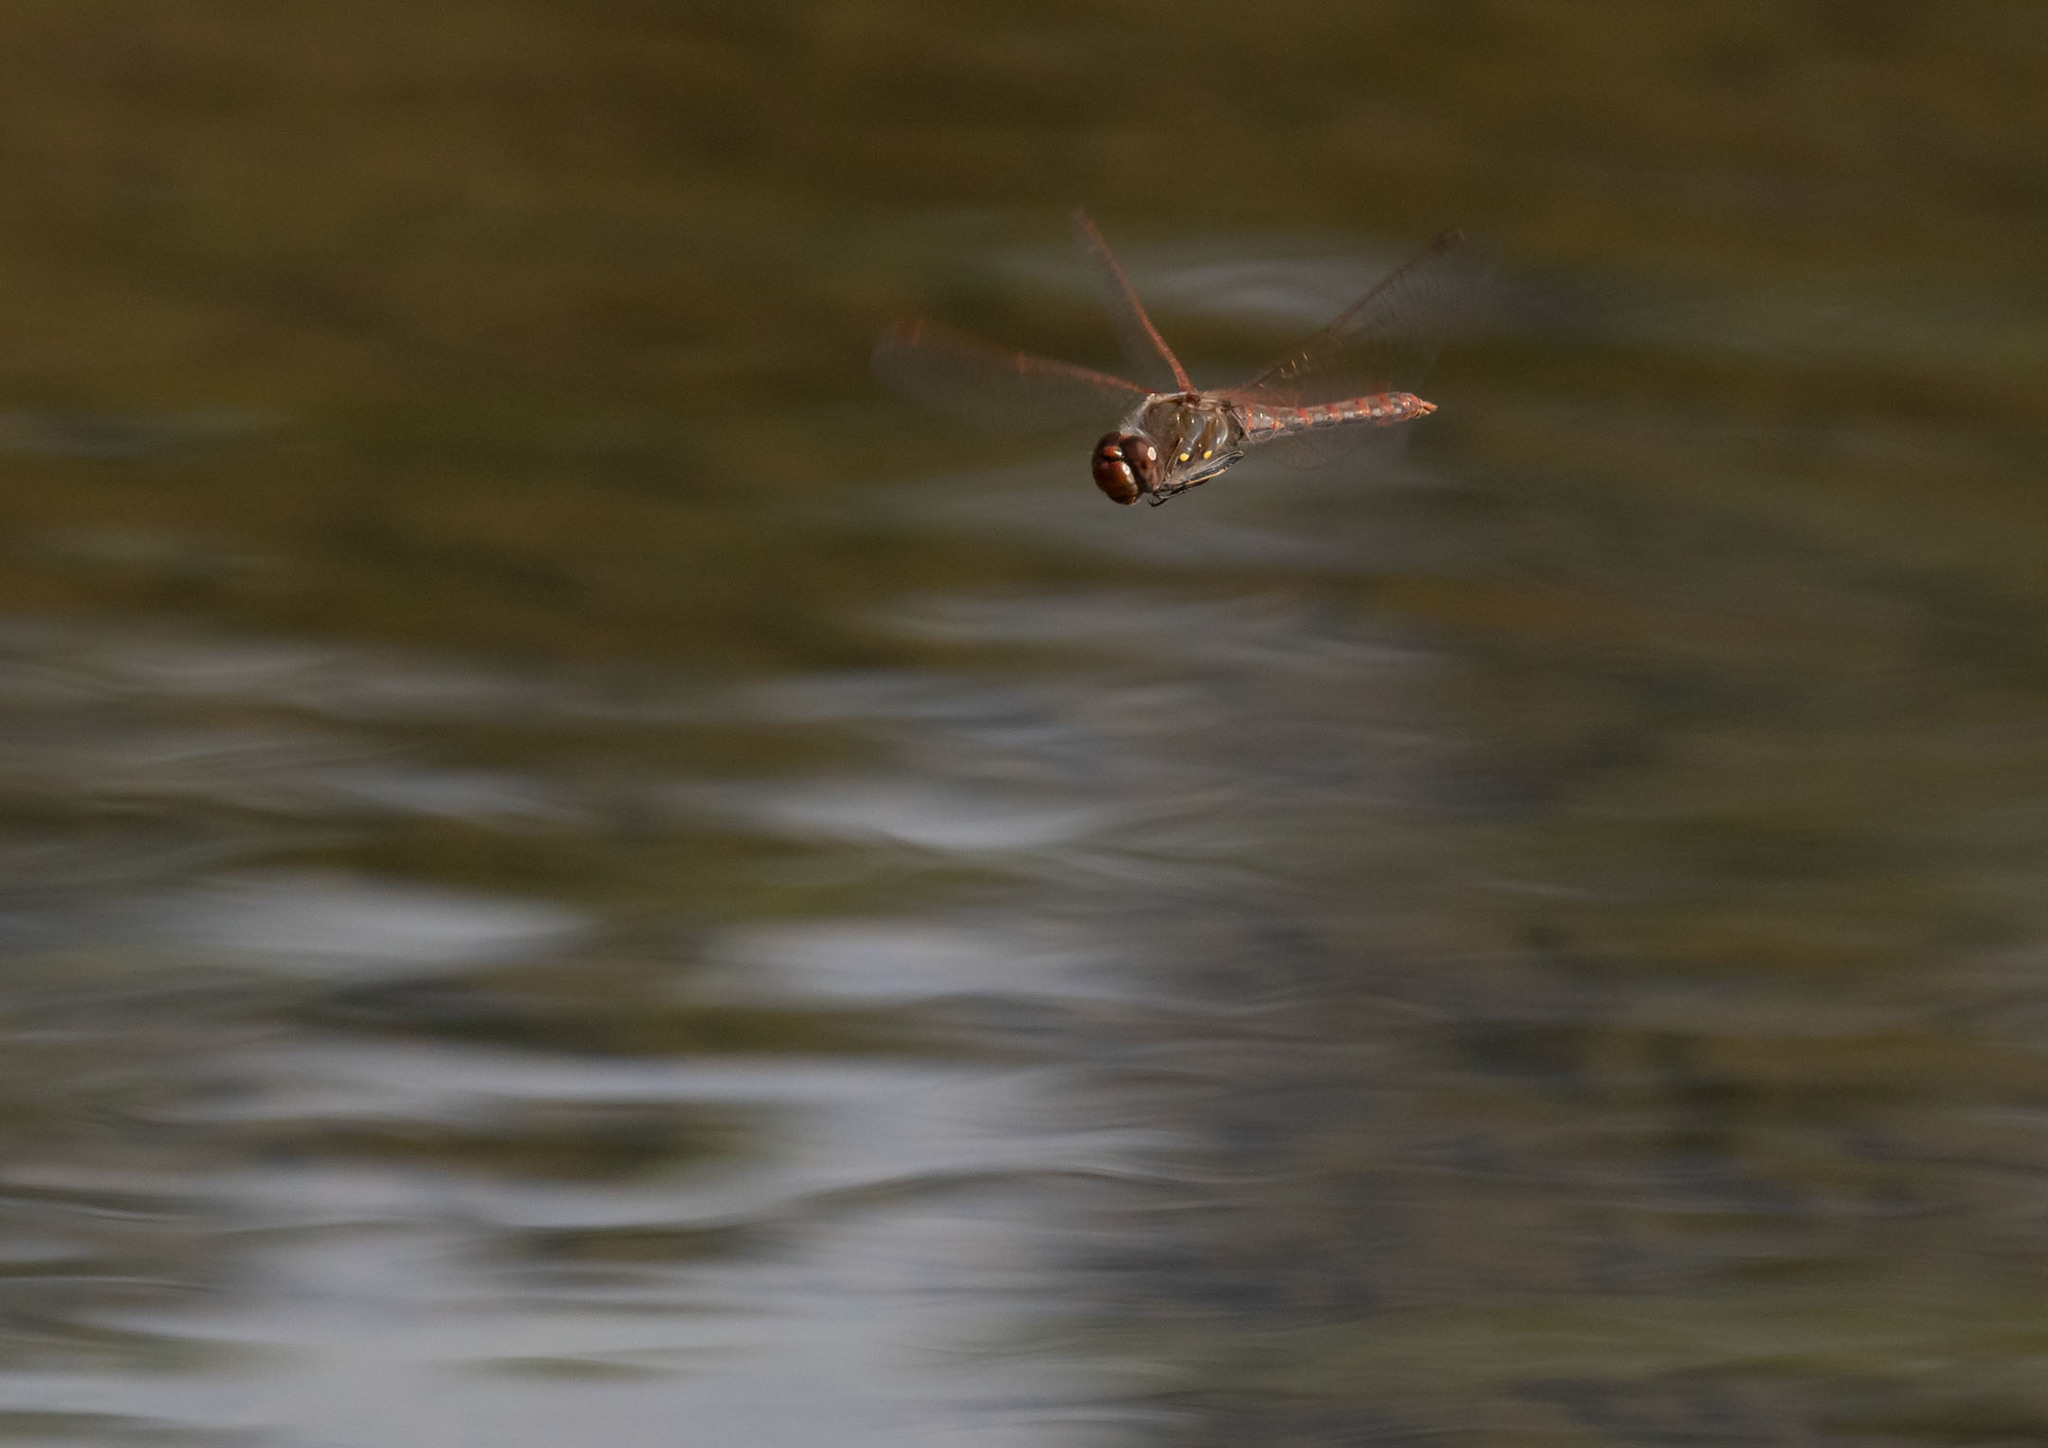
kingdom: Animalia
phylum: Arthropoda
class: Insecta
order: Odonata
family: Libellulidae
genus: Sympetrum
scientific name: Sympetrum corruptum
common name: Variegated meadowhawk
